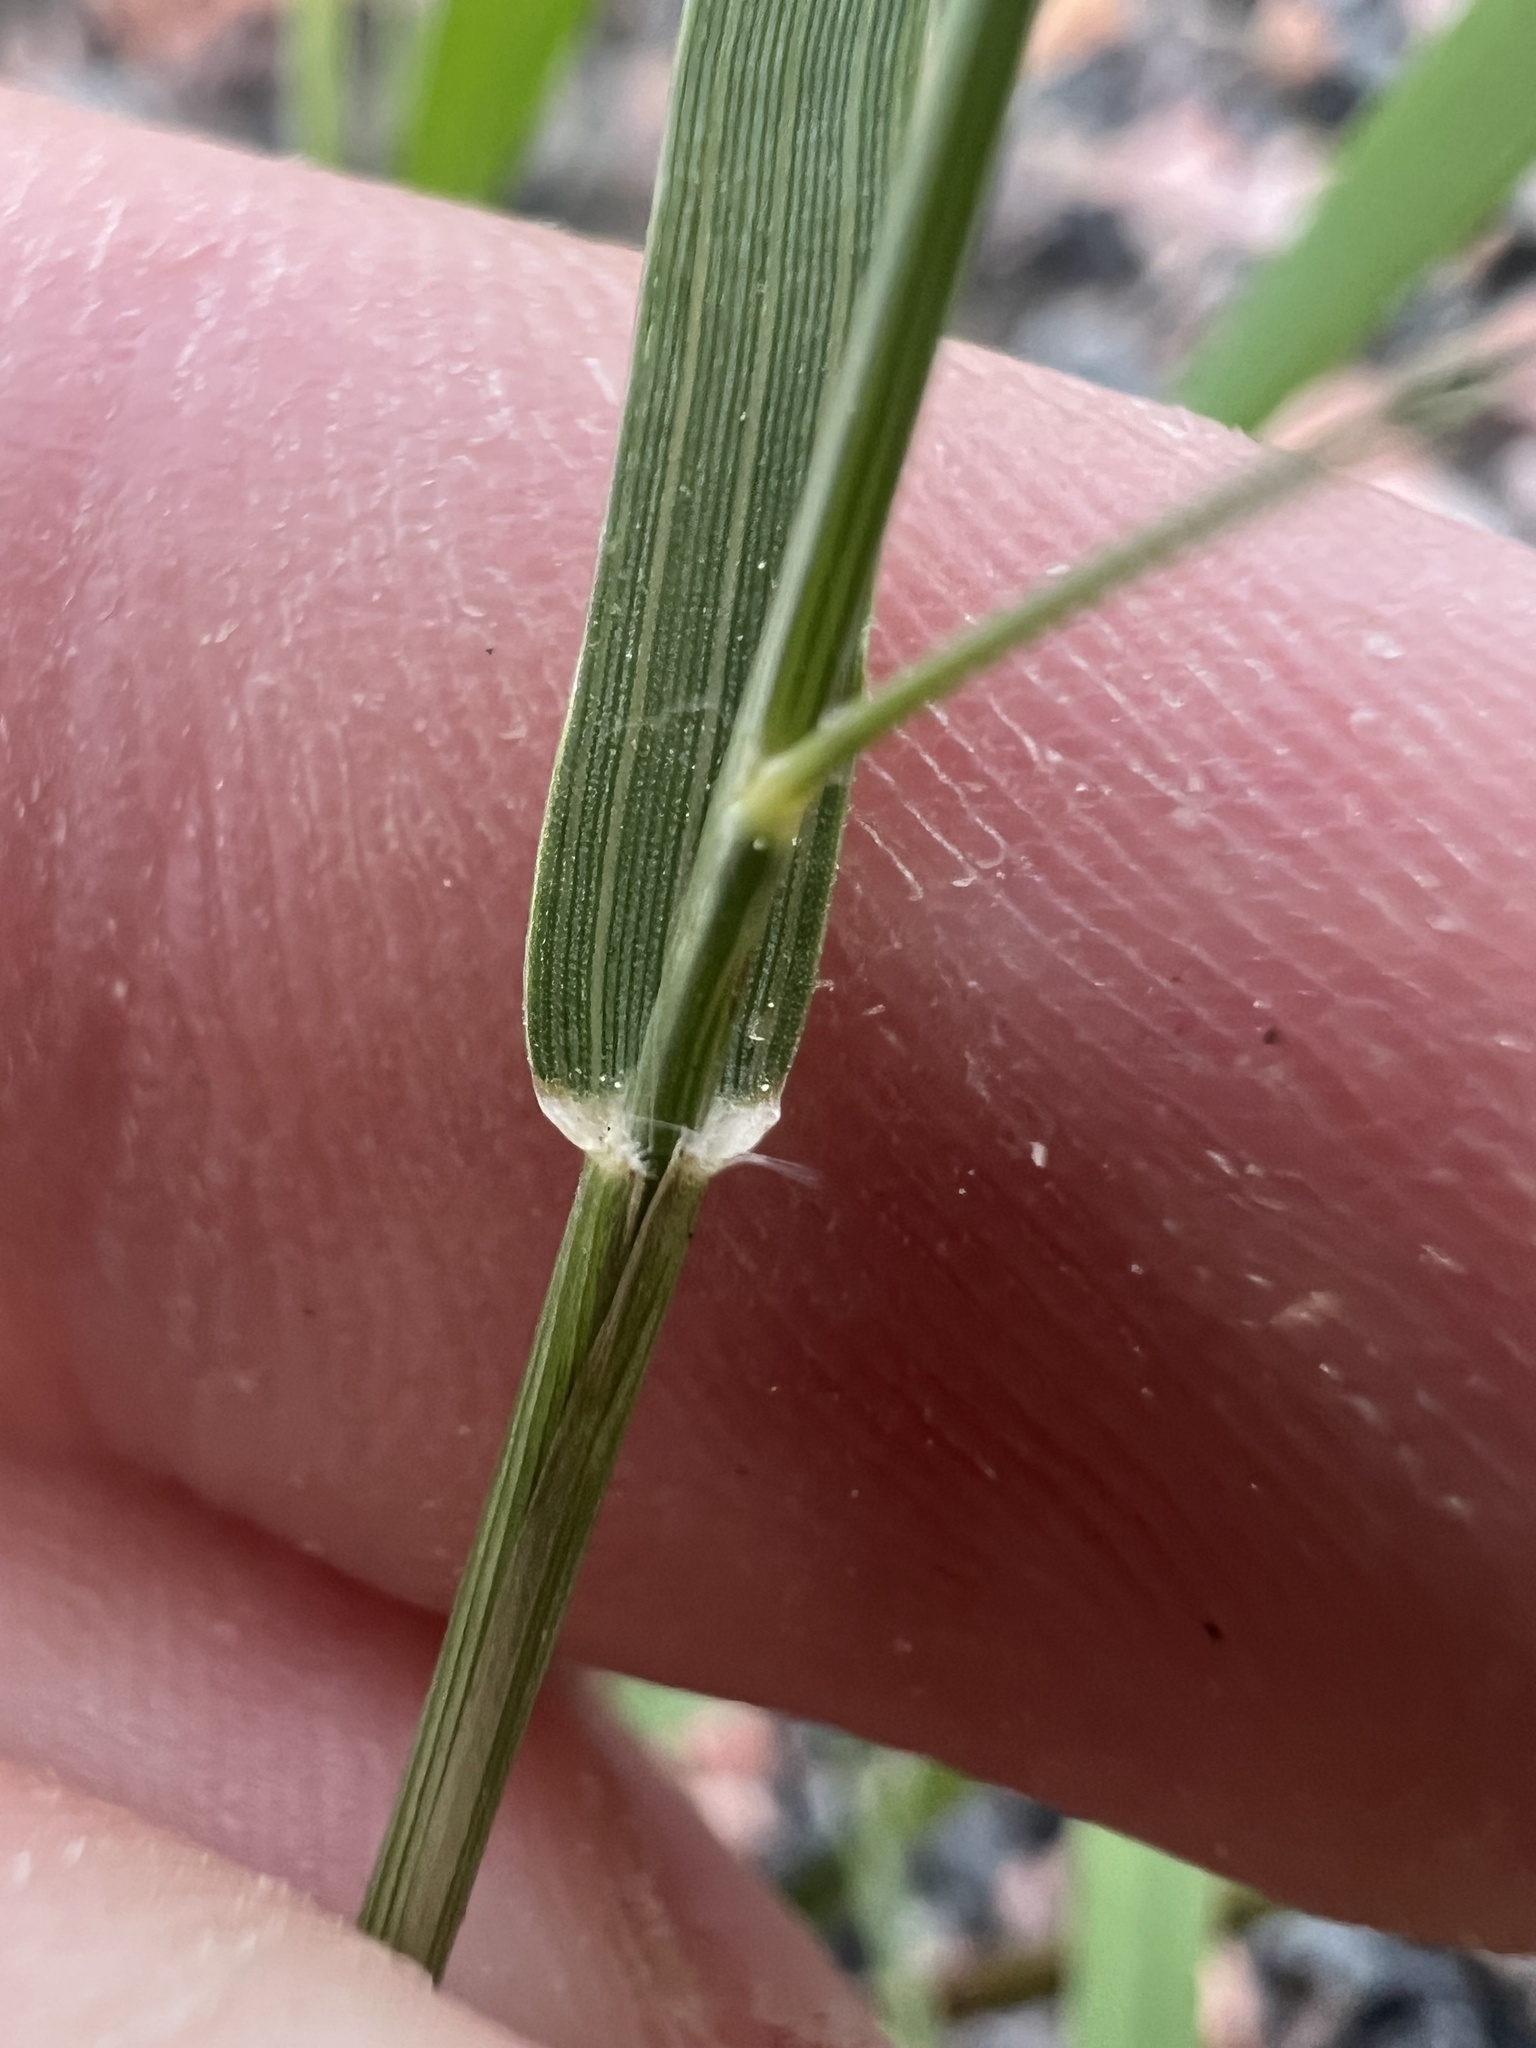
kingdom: Plantae
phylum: Tracheophyta
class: Liliopsida
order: Poales
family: Poaceae
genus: Eragrostis
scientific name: Eragrostis minor
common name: Small love-grass
